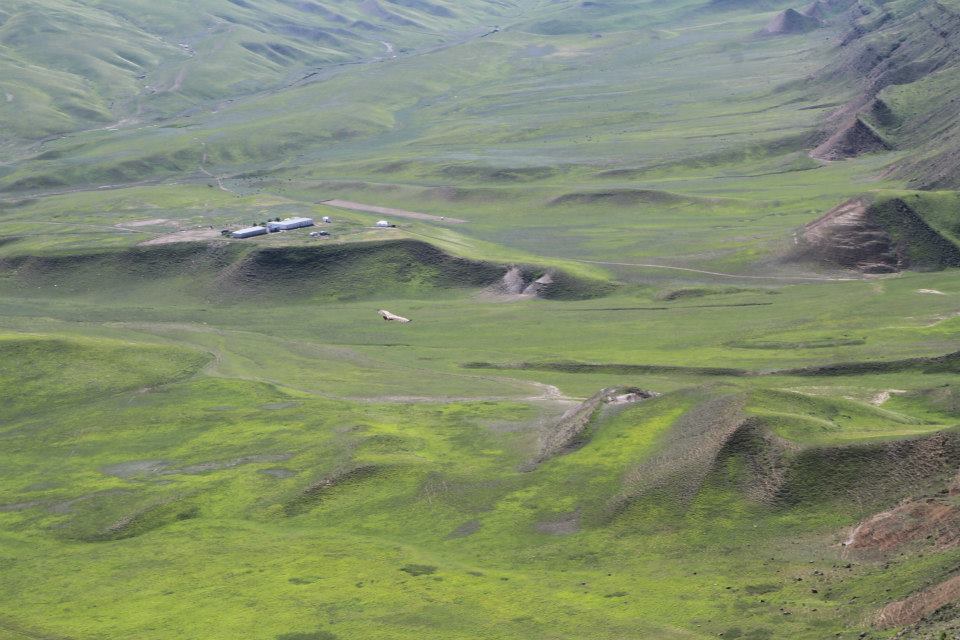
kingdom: Animalia
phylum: Chordata
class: Aves
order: Accipitriformes
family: Accipitridae
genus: Gyps
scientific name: Gyps fulvus
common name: Griffon vulture
